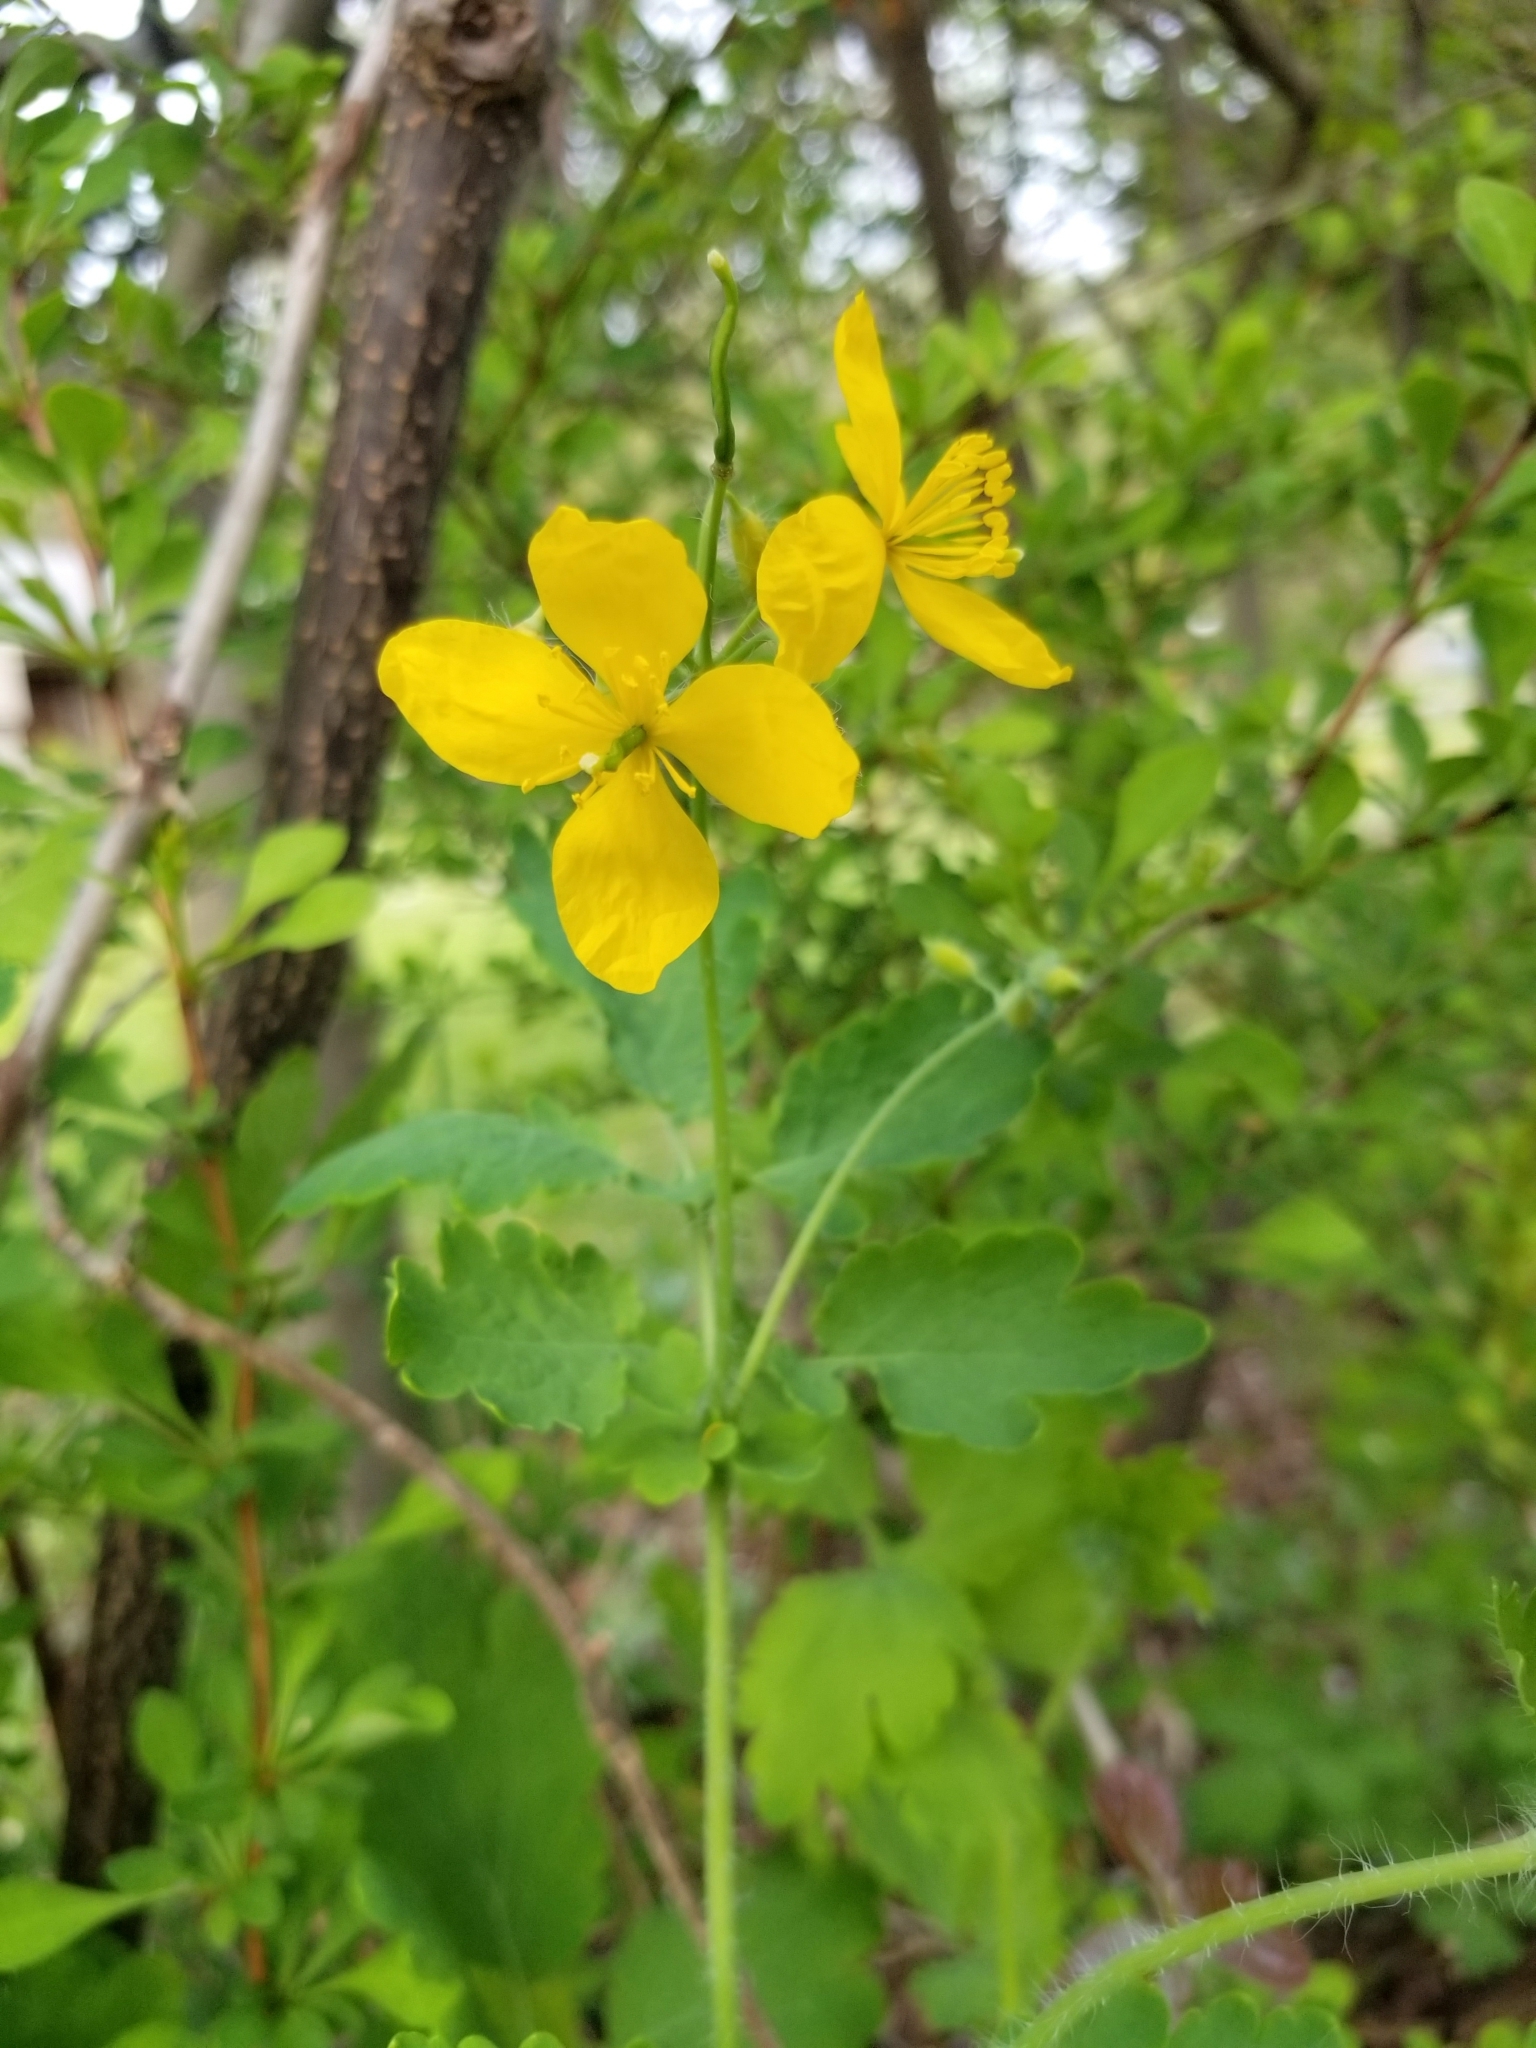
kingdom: Plantae
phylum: Tracheophyta
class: Magnoliopsida
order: Ranunculales
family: Papaveraceae
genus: Chelidonium
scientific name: Chelidonium majus
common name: Greater celandine
